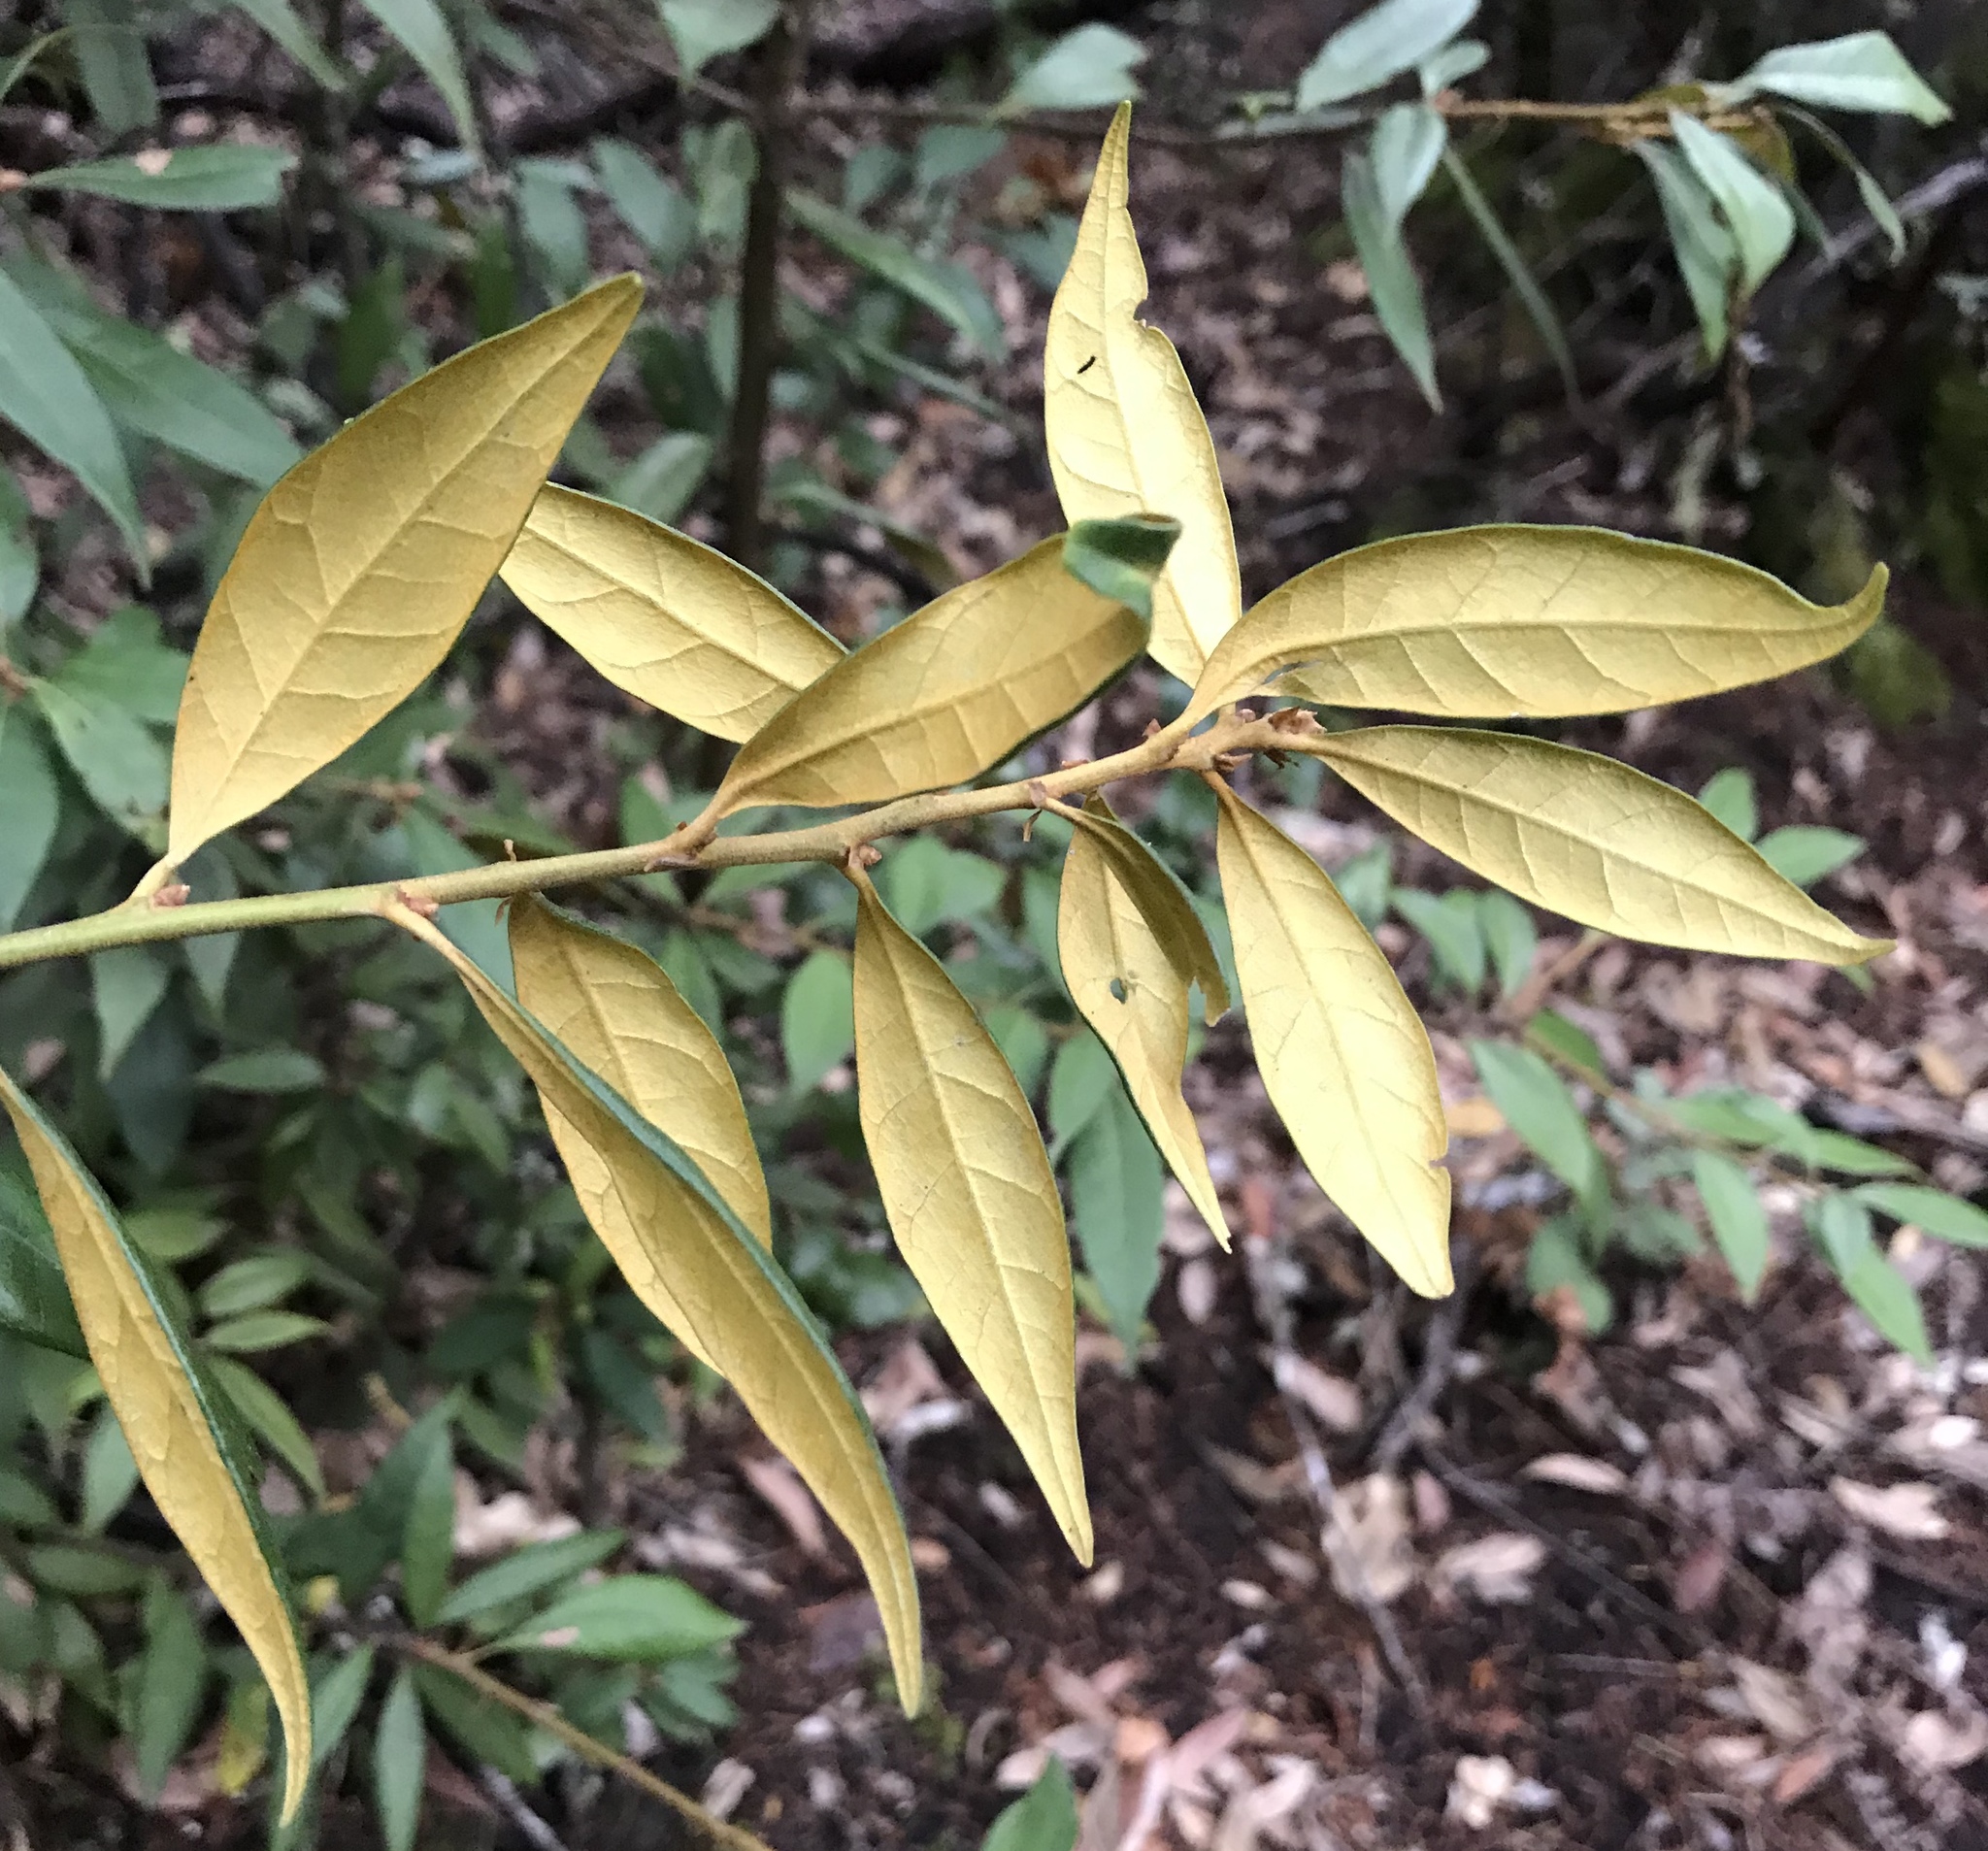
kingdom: Plantae
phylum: Tracheophyta
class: Magnoliopsida
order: Fagales
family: Fagaceae
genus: Chrysolepis
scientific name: Chrysolepis chrysophylla
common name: Giant chinquapin
